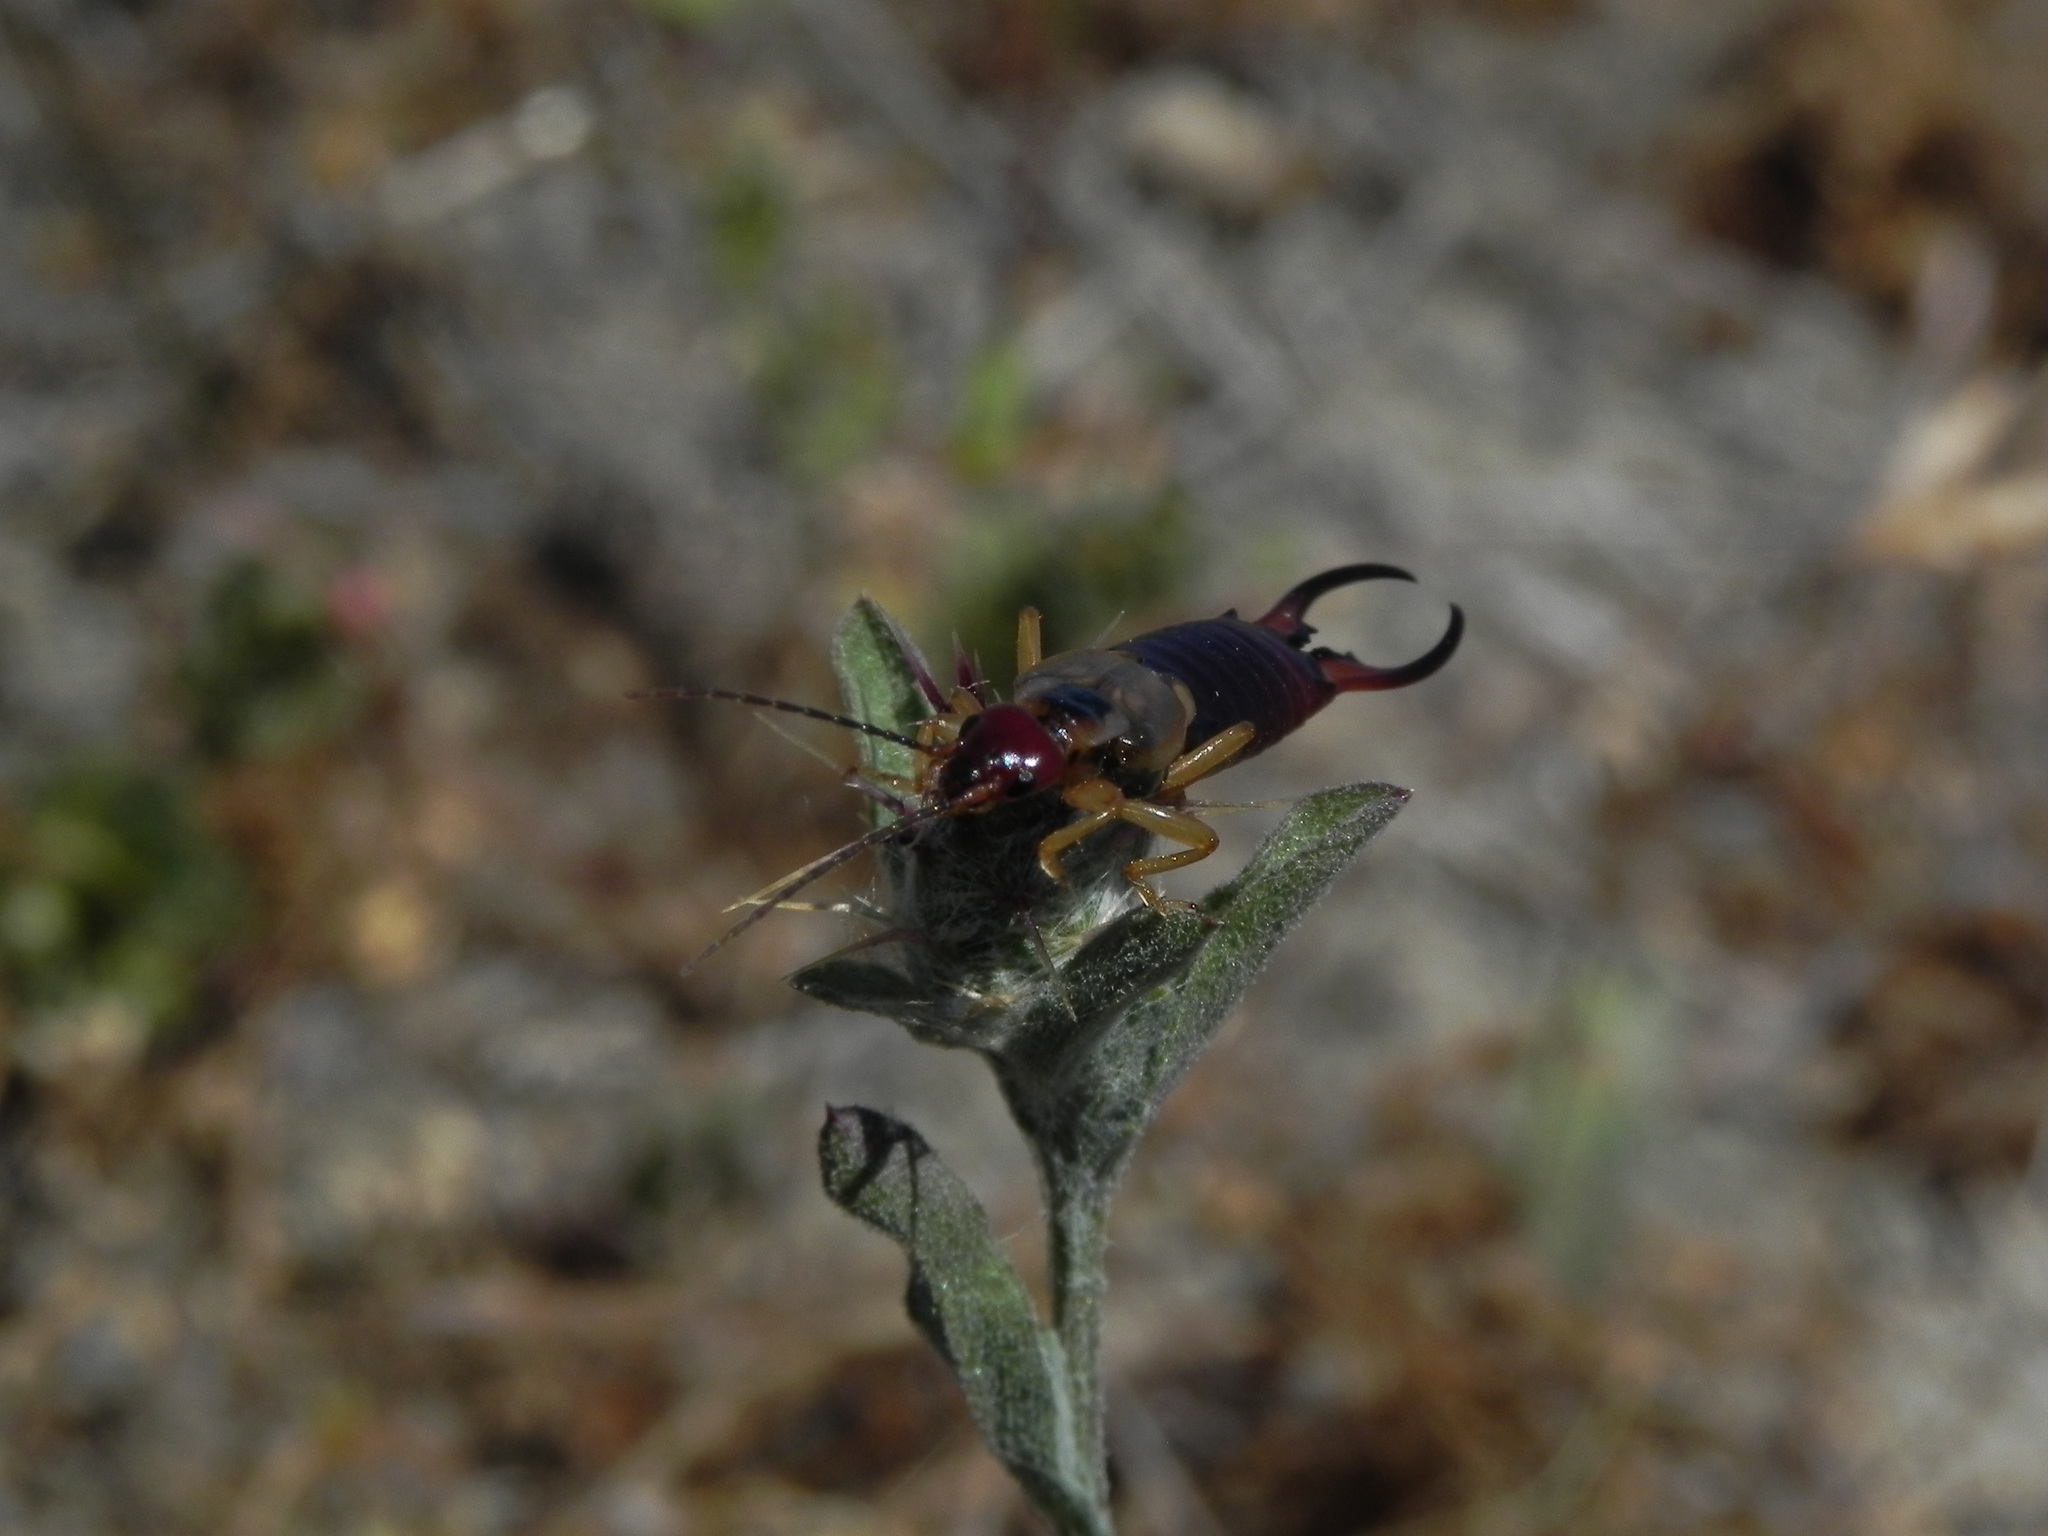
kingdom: Animalia
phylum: Arthropoda
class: Insecta
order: Dermaptera
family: Forficulidae
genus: Forficula
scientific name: Forficula
